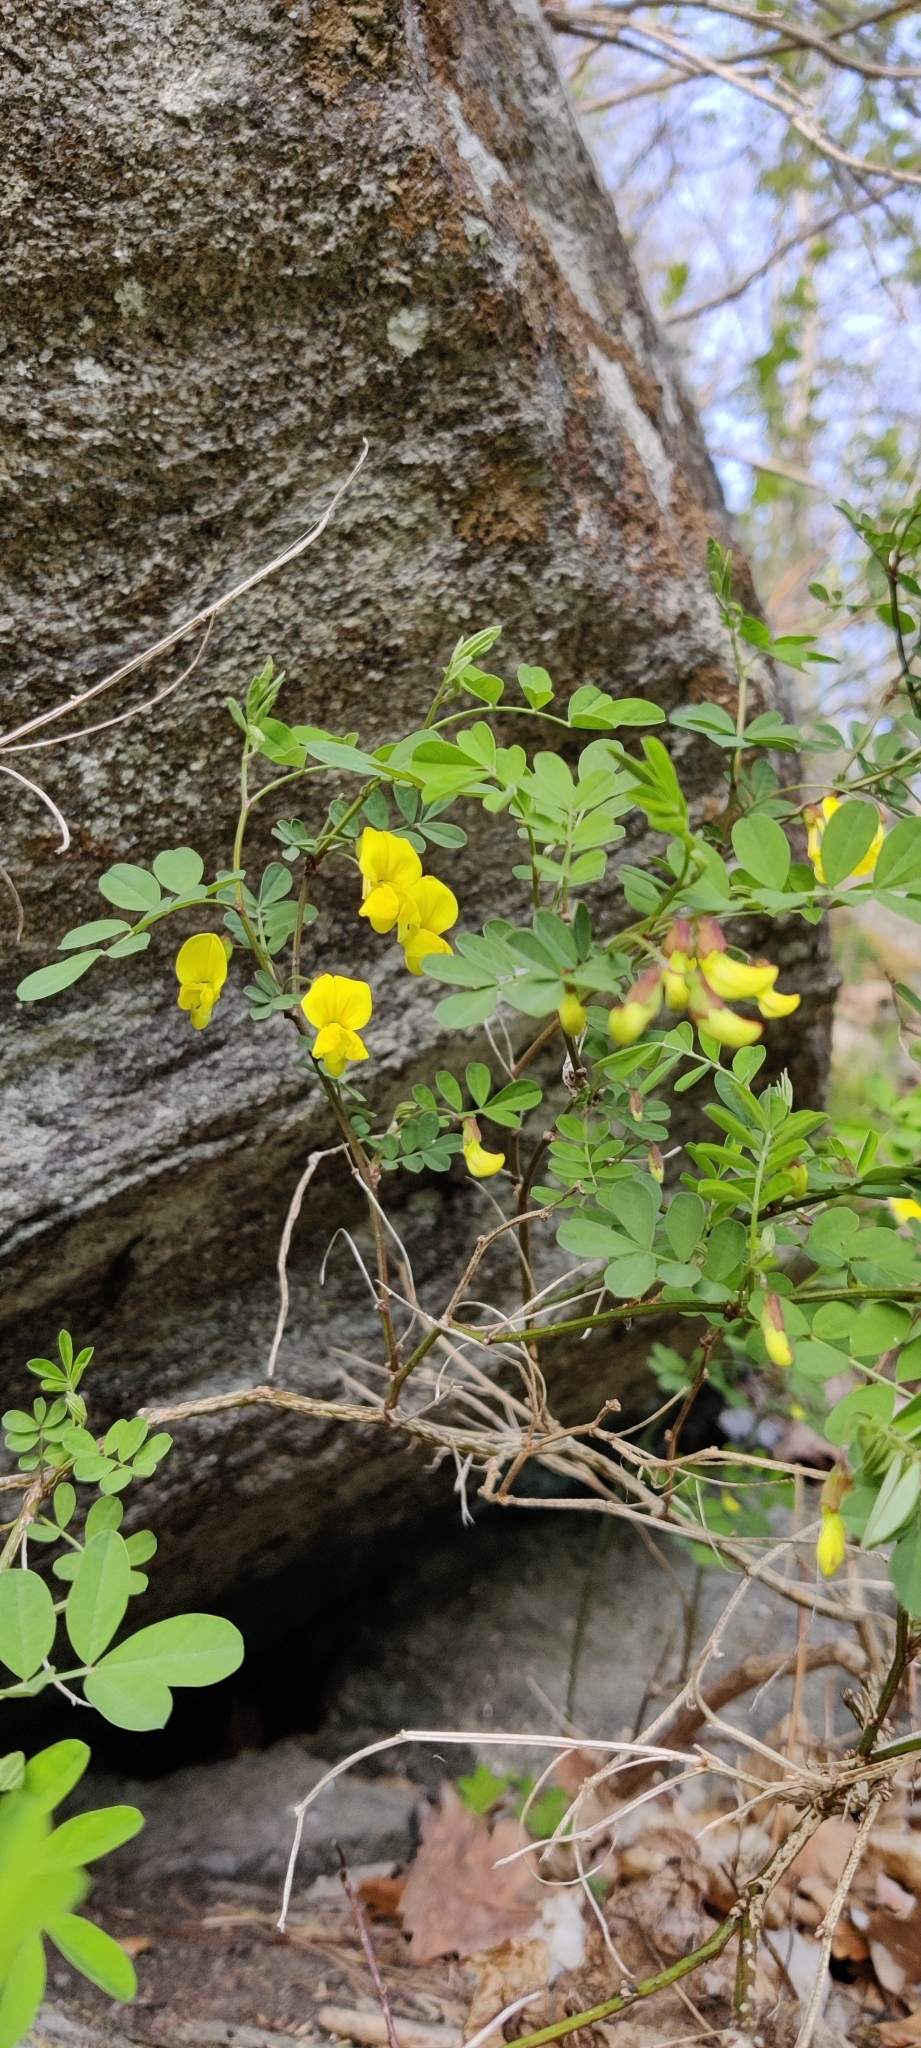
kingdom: Plantae
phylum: Tracheophyta
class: Magnoliopsida
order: Fabales
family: Fabaceae
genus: Hippocrepis
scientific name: Hippocrepis emerus
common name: Scorpion senna
